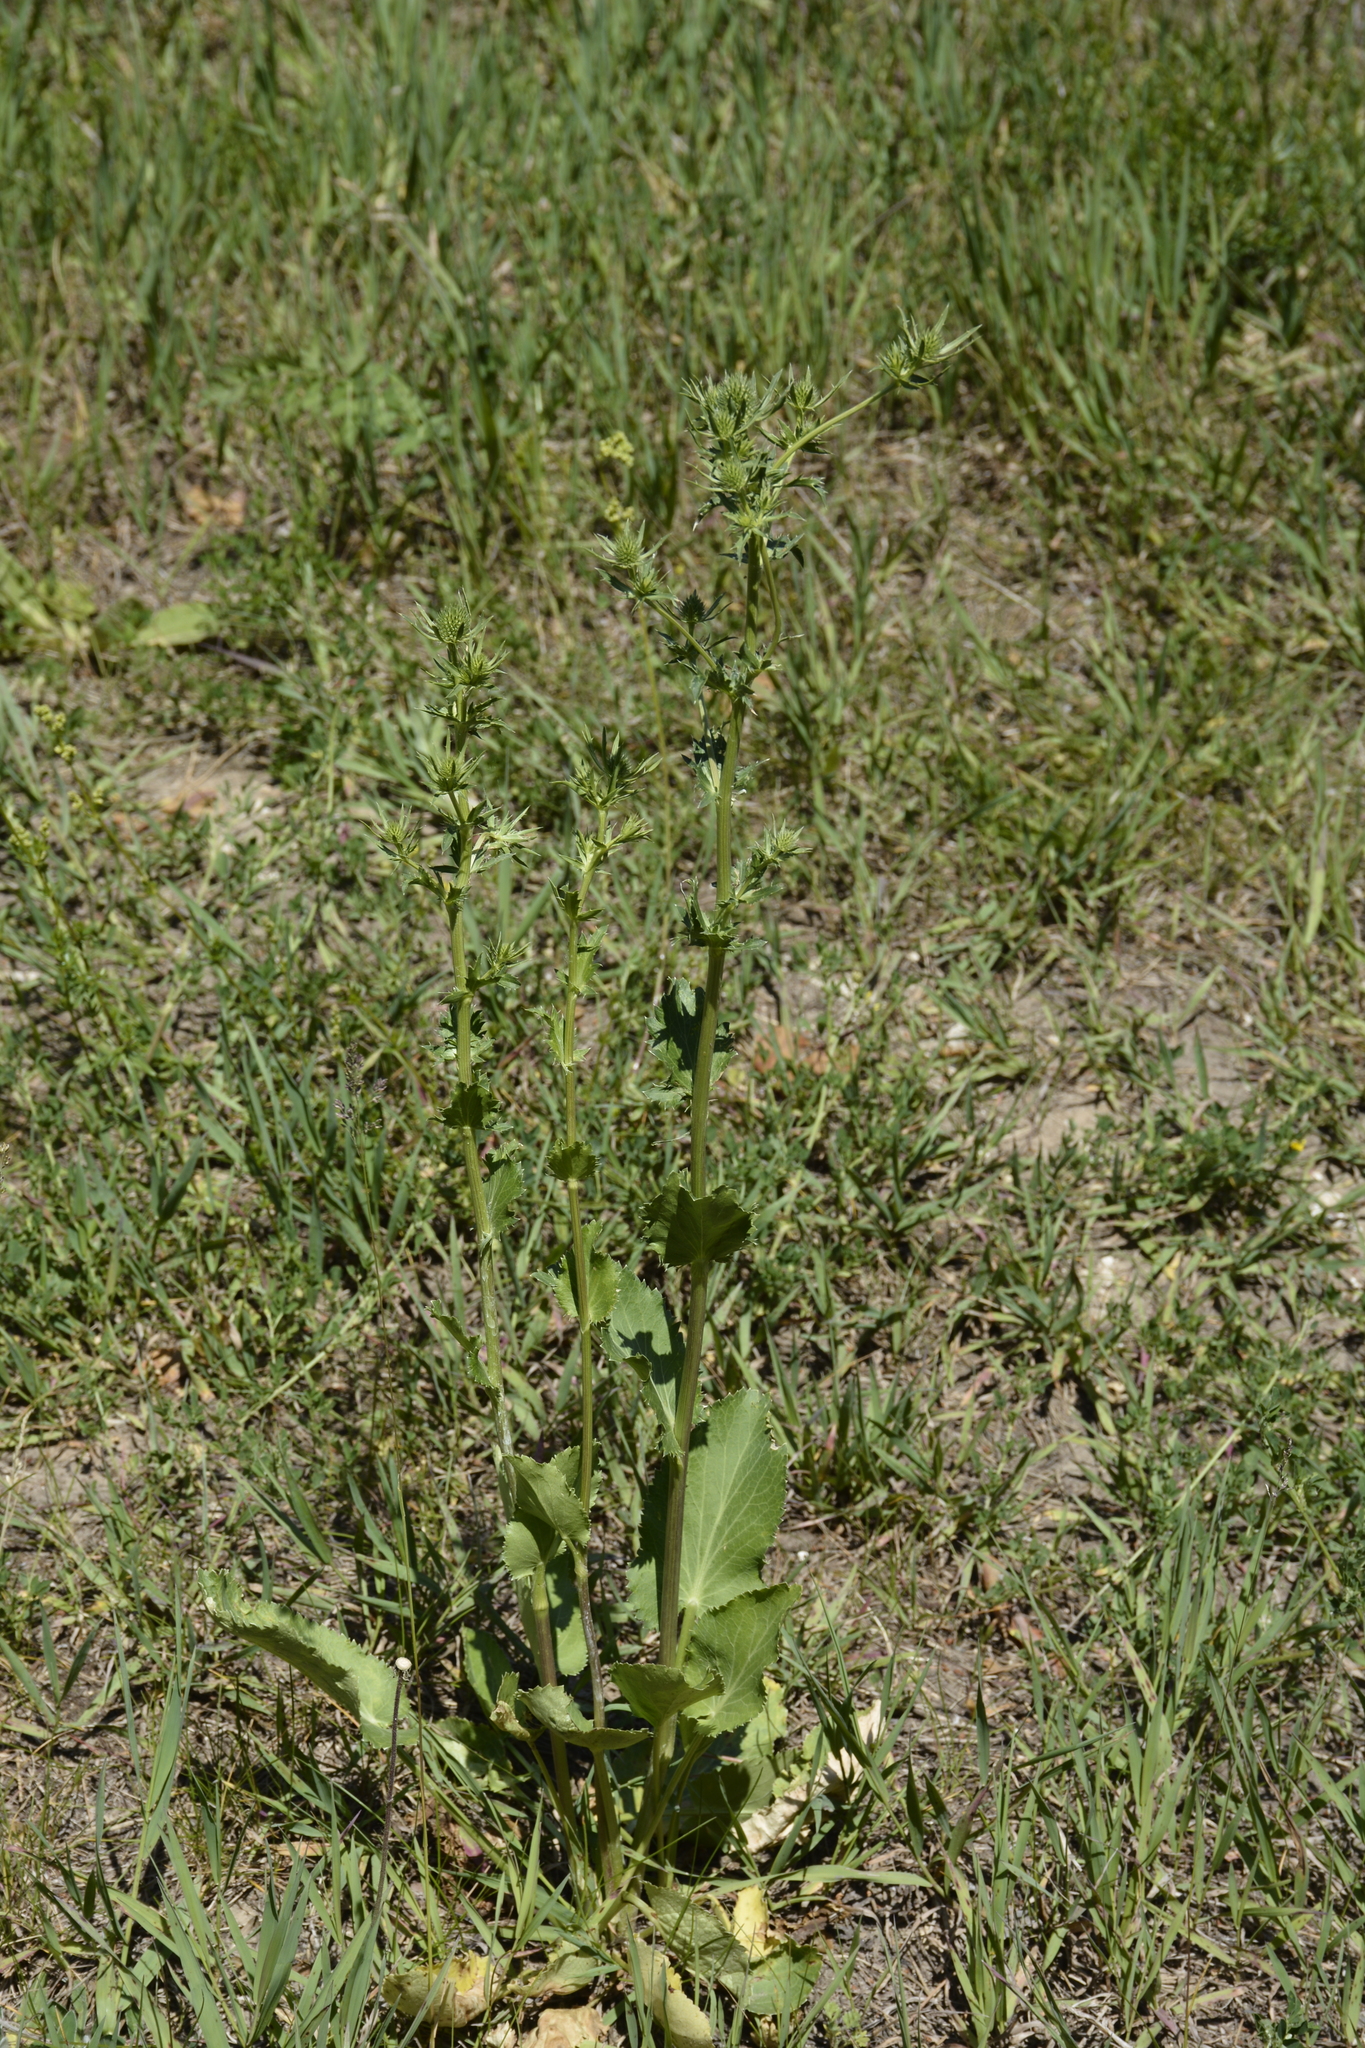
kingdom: Plantae
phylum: Tracheophyta
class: Magnoliopsida
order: Apiales
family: Apiaceae
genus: Eryngium
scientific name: Eryngium planum
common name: Blue eryngo
